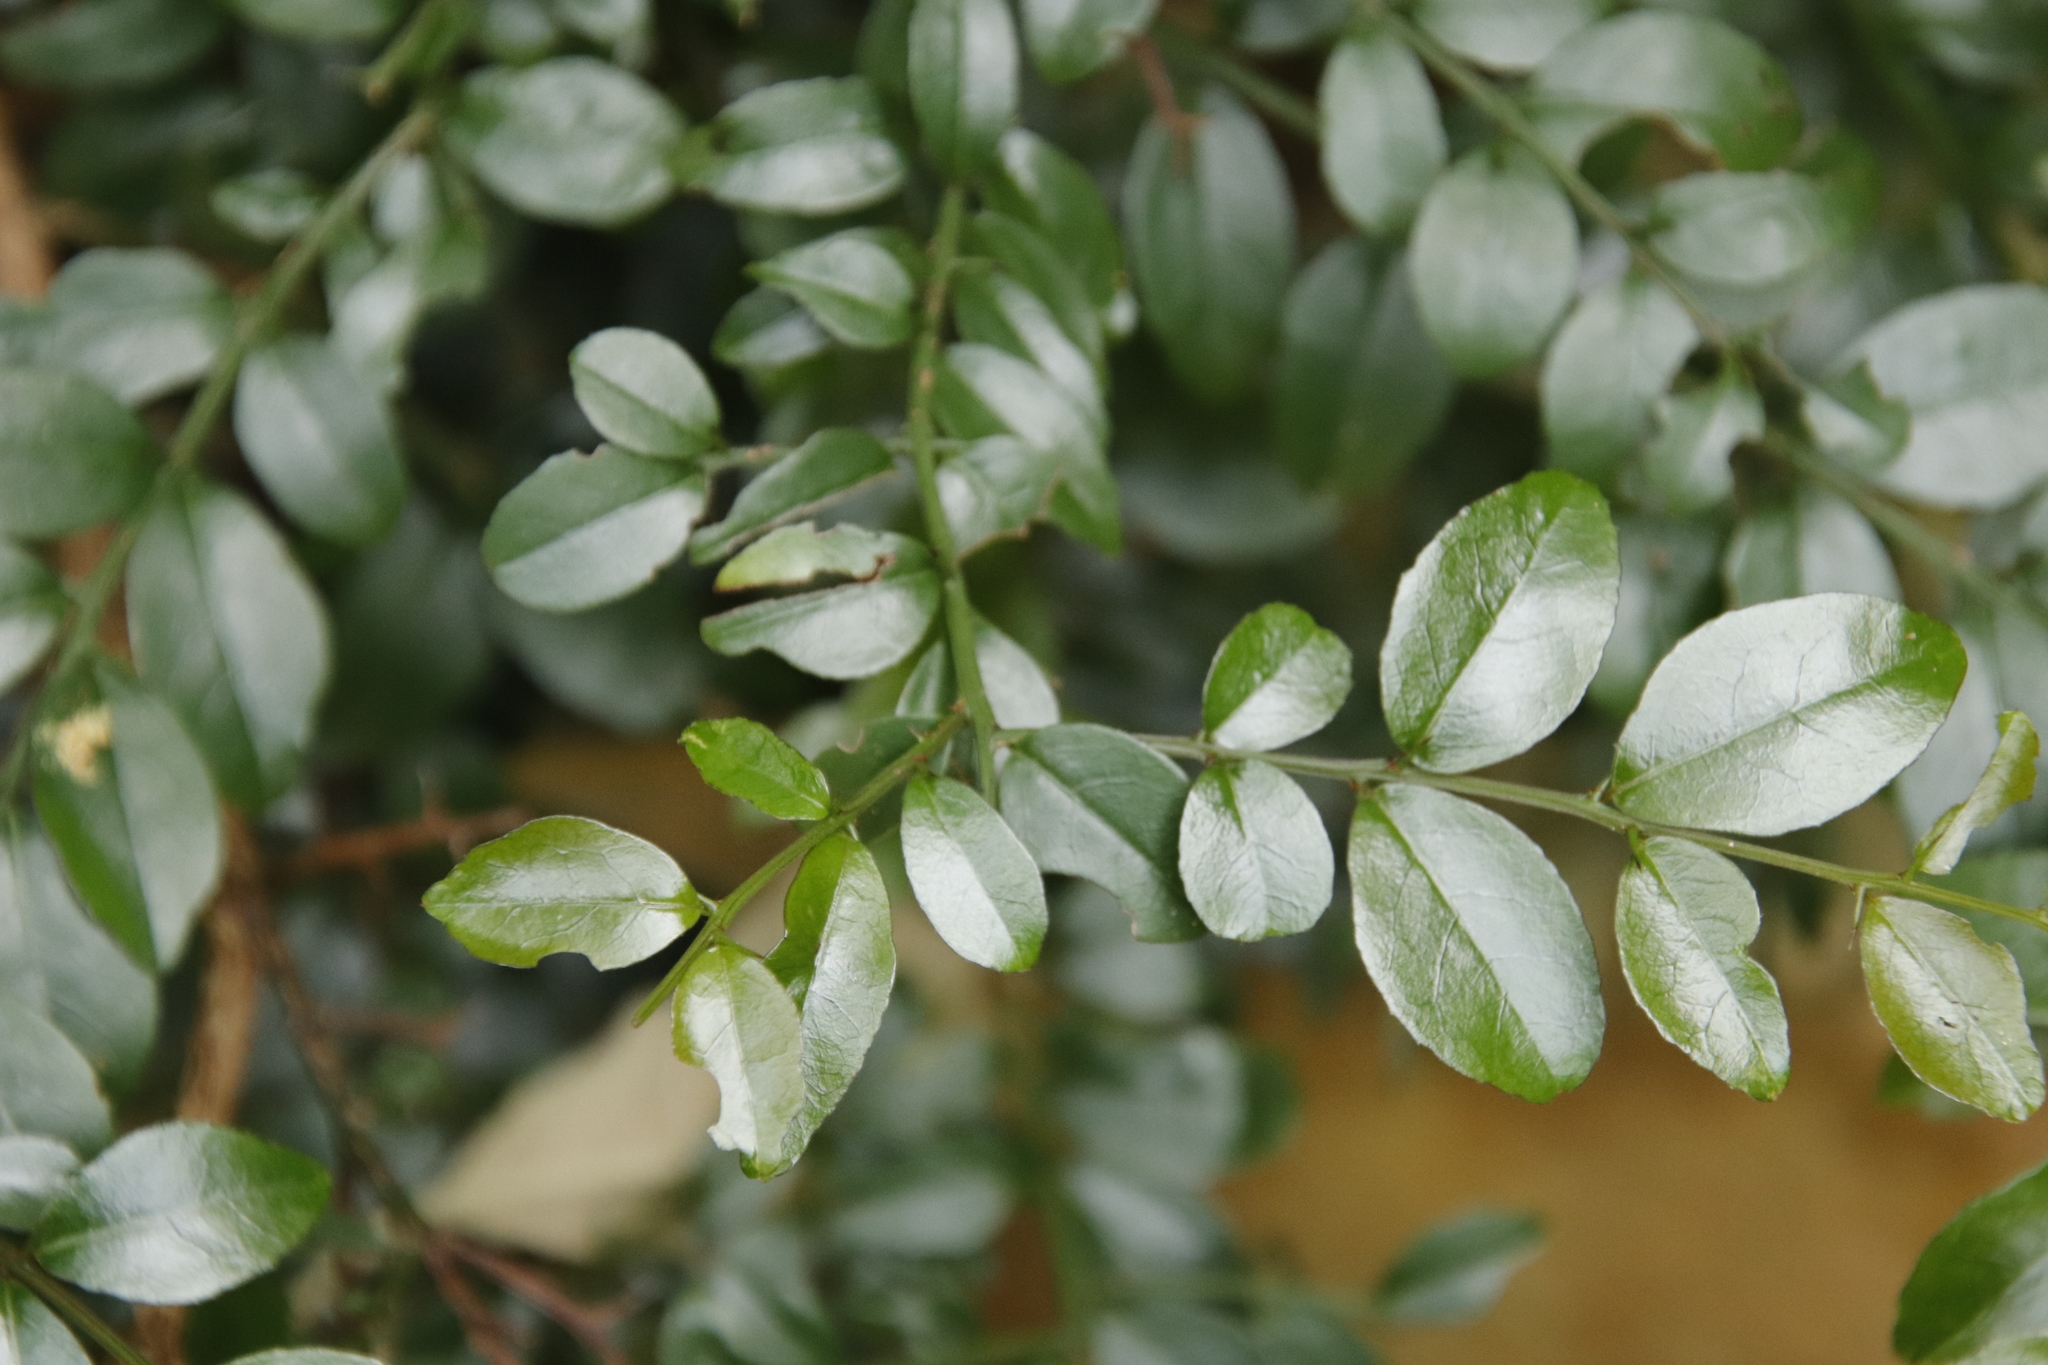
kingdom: Plantae
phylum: Tracheophyta
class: Magnoliopsida
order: Rosales
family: Rhamnaceae
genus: Scutia
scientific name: Scutia myrtina
